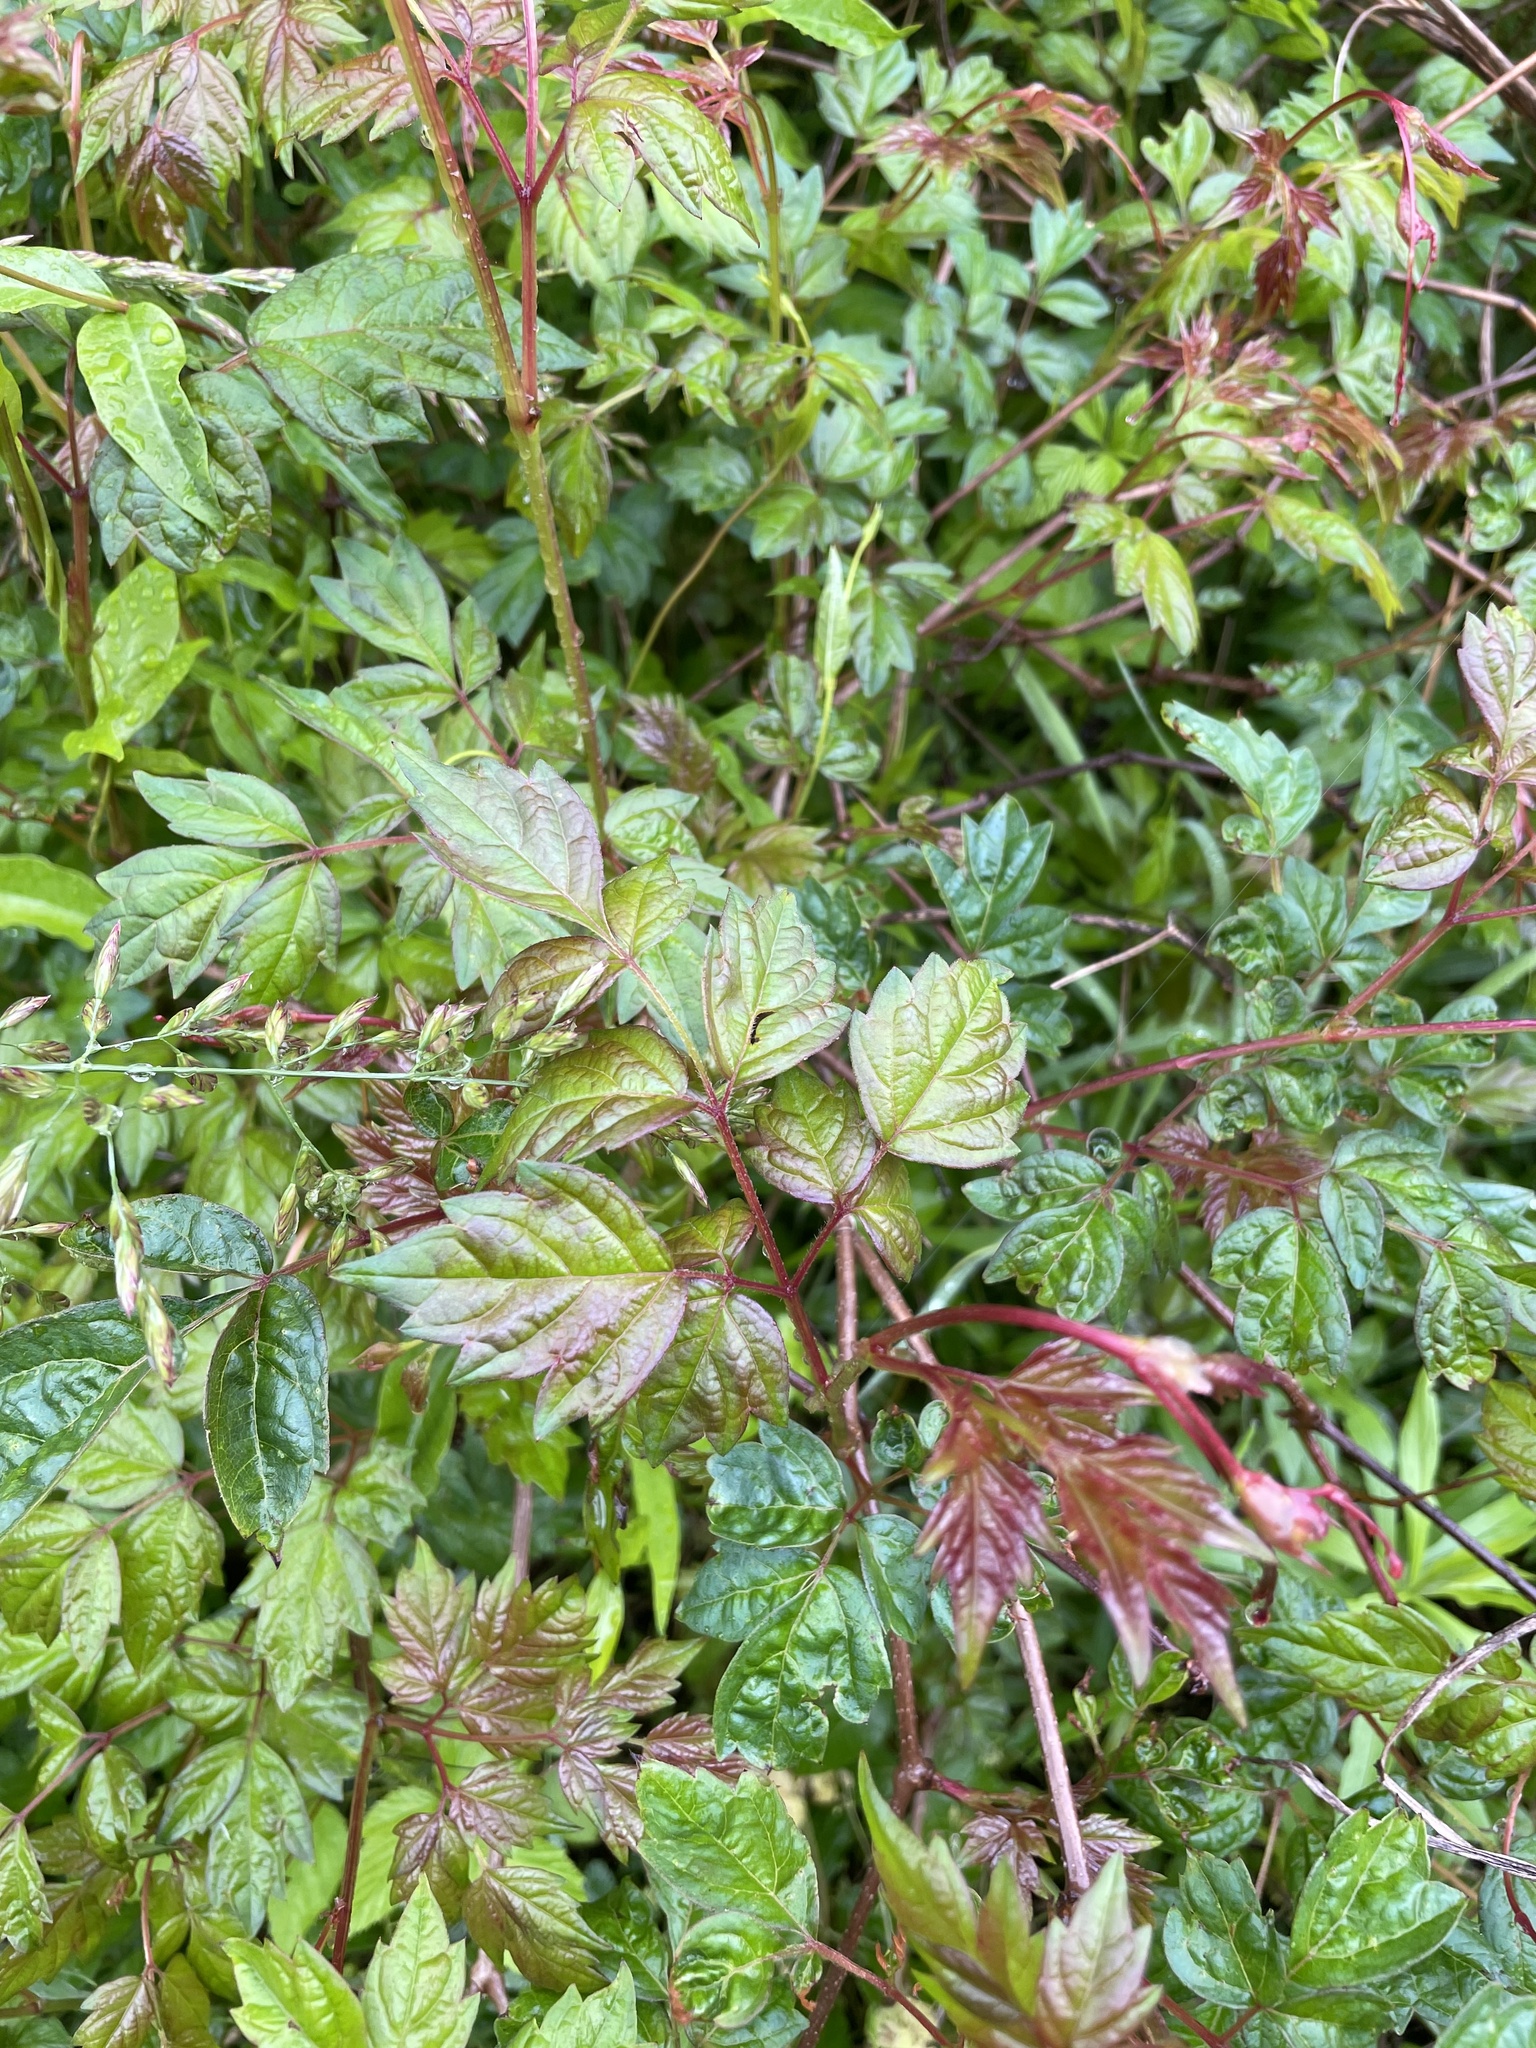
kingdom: Plantae
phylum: Tracheophyta
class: Magnoliopsida
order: Vitales
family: Vitaceae
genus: Nekemias
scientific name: Nekemias arborea
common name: Peppervine
